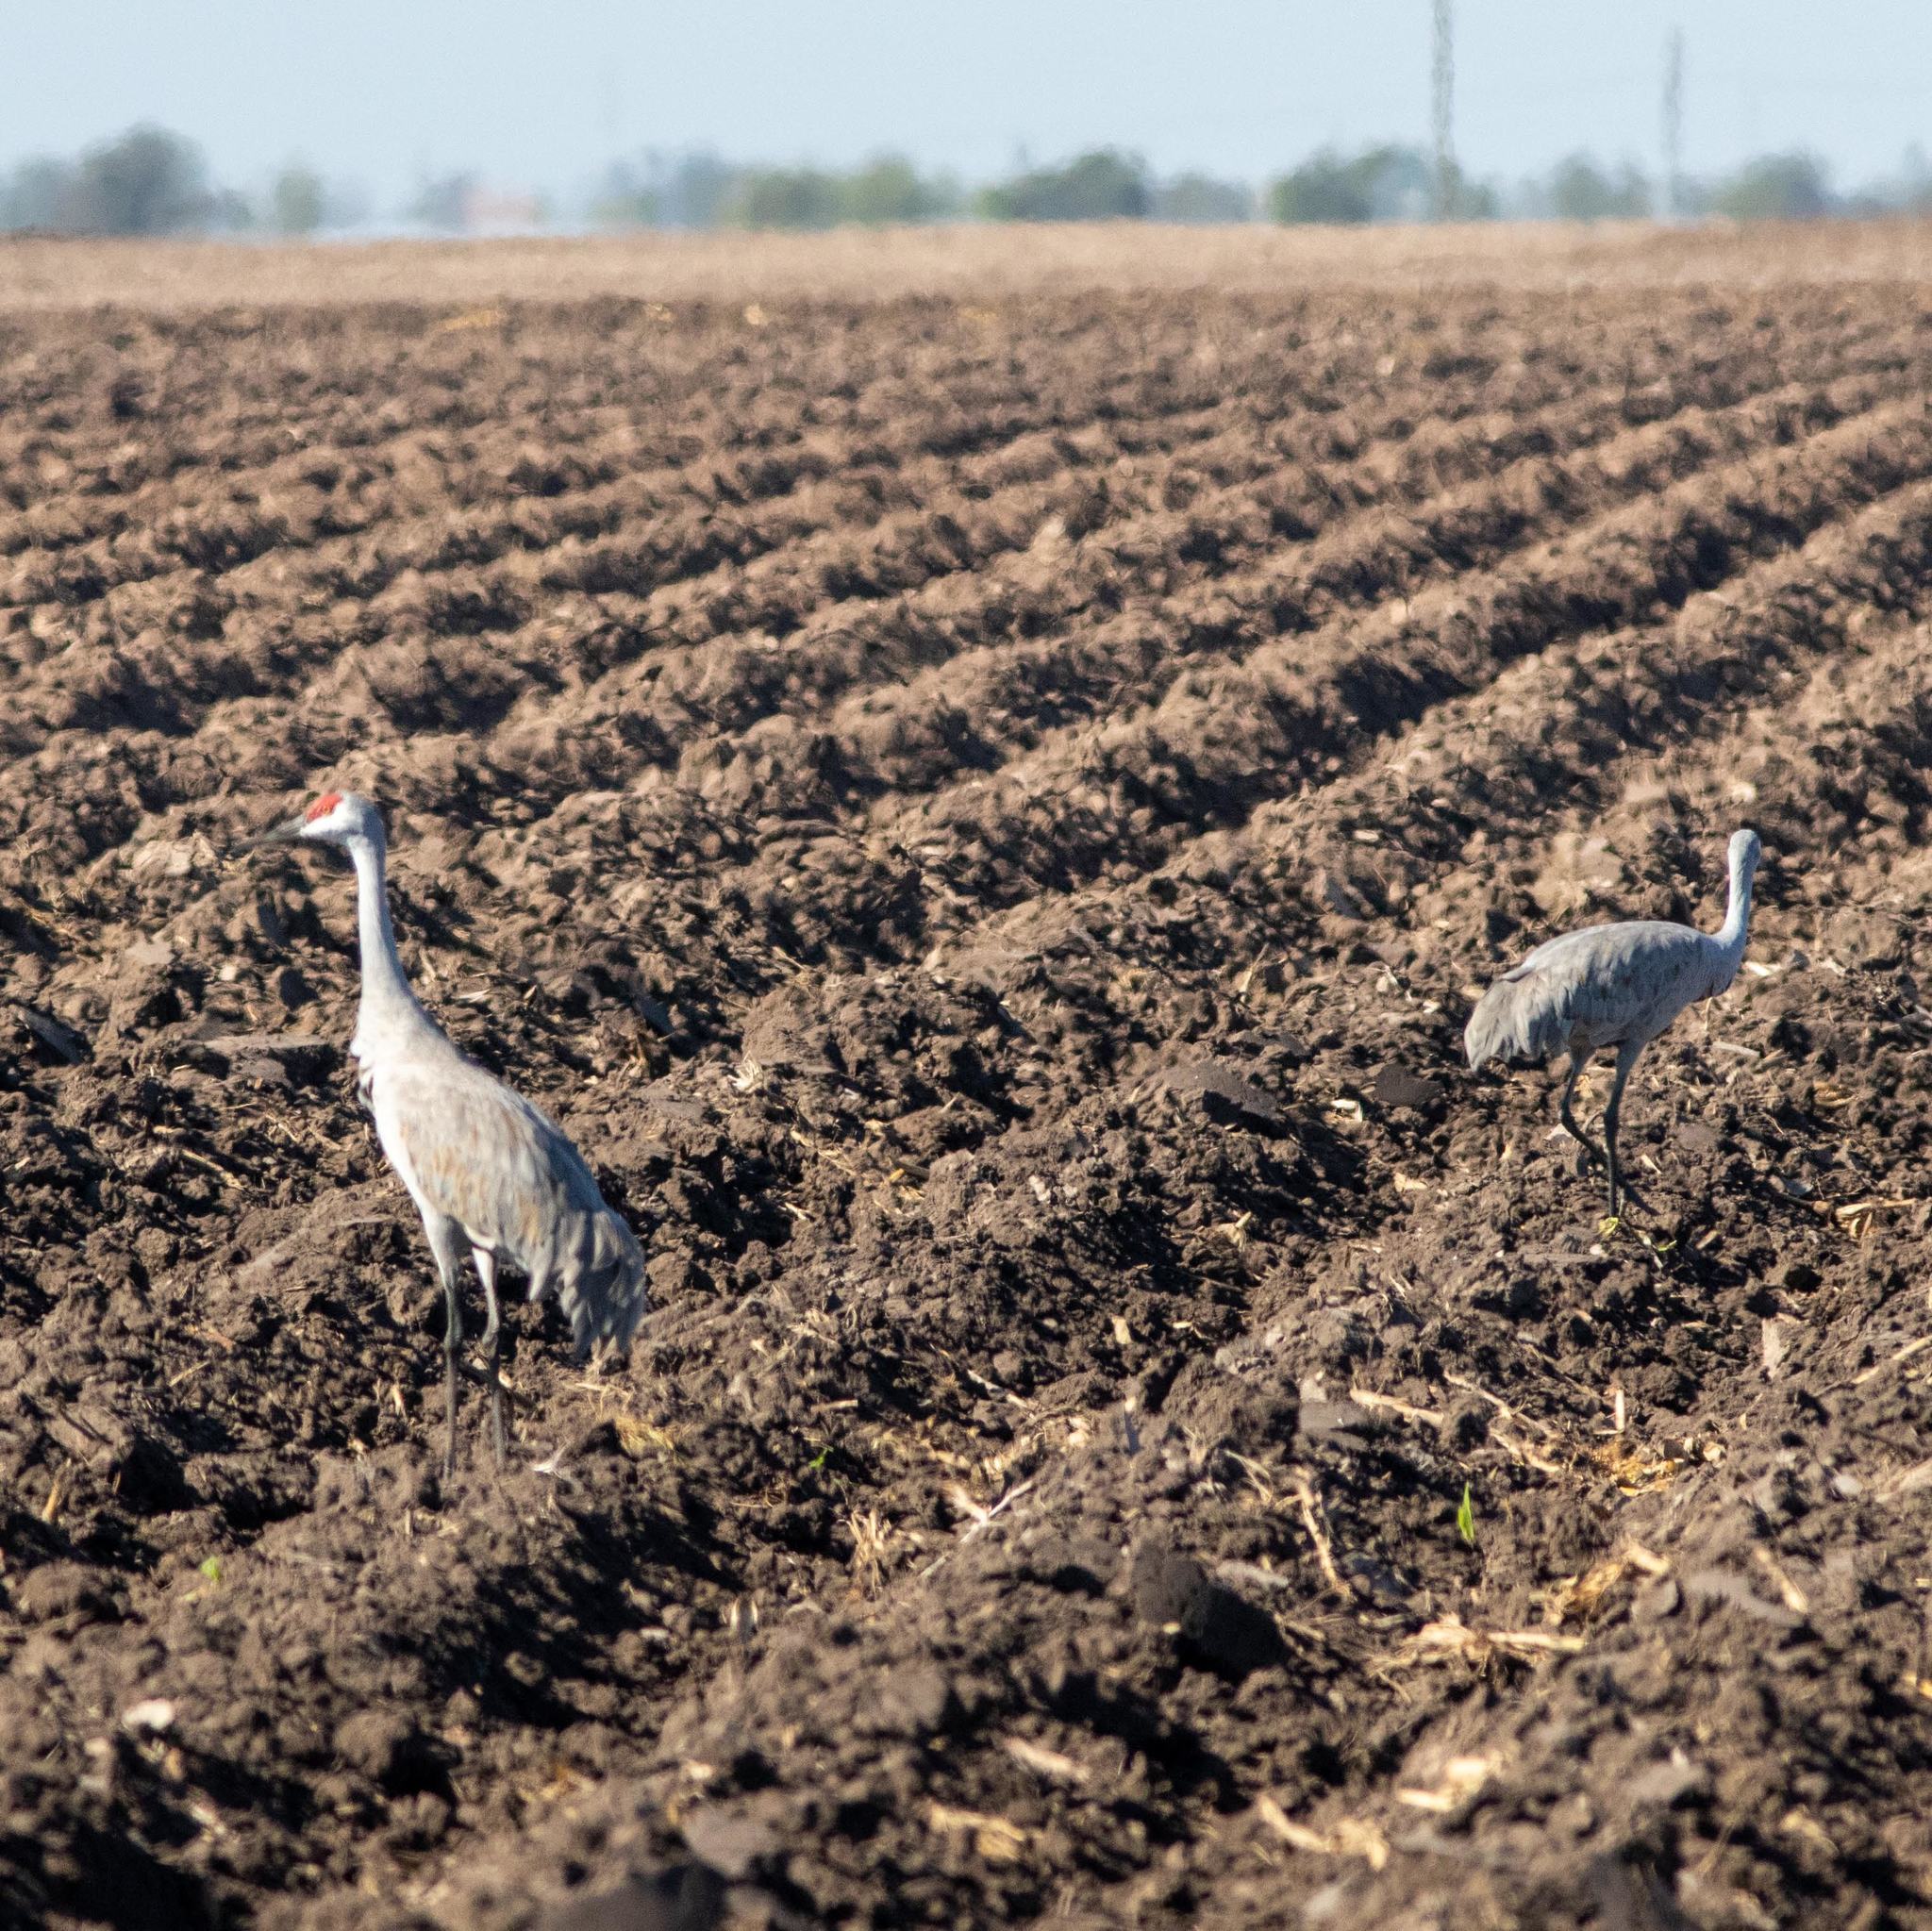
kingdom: Animalia
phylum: Chordata
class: Aves
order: Gruiformes
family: Gruidae
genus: Grus
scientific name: Grus canadensis
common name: Sandhill crane
